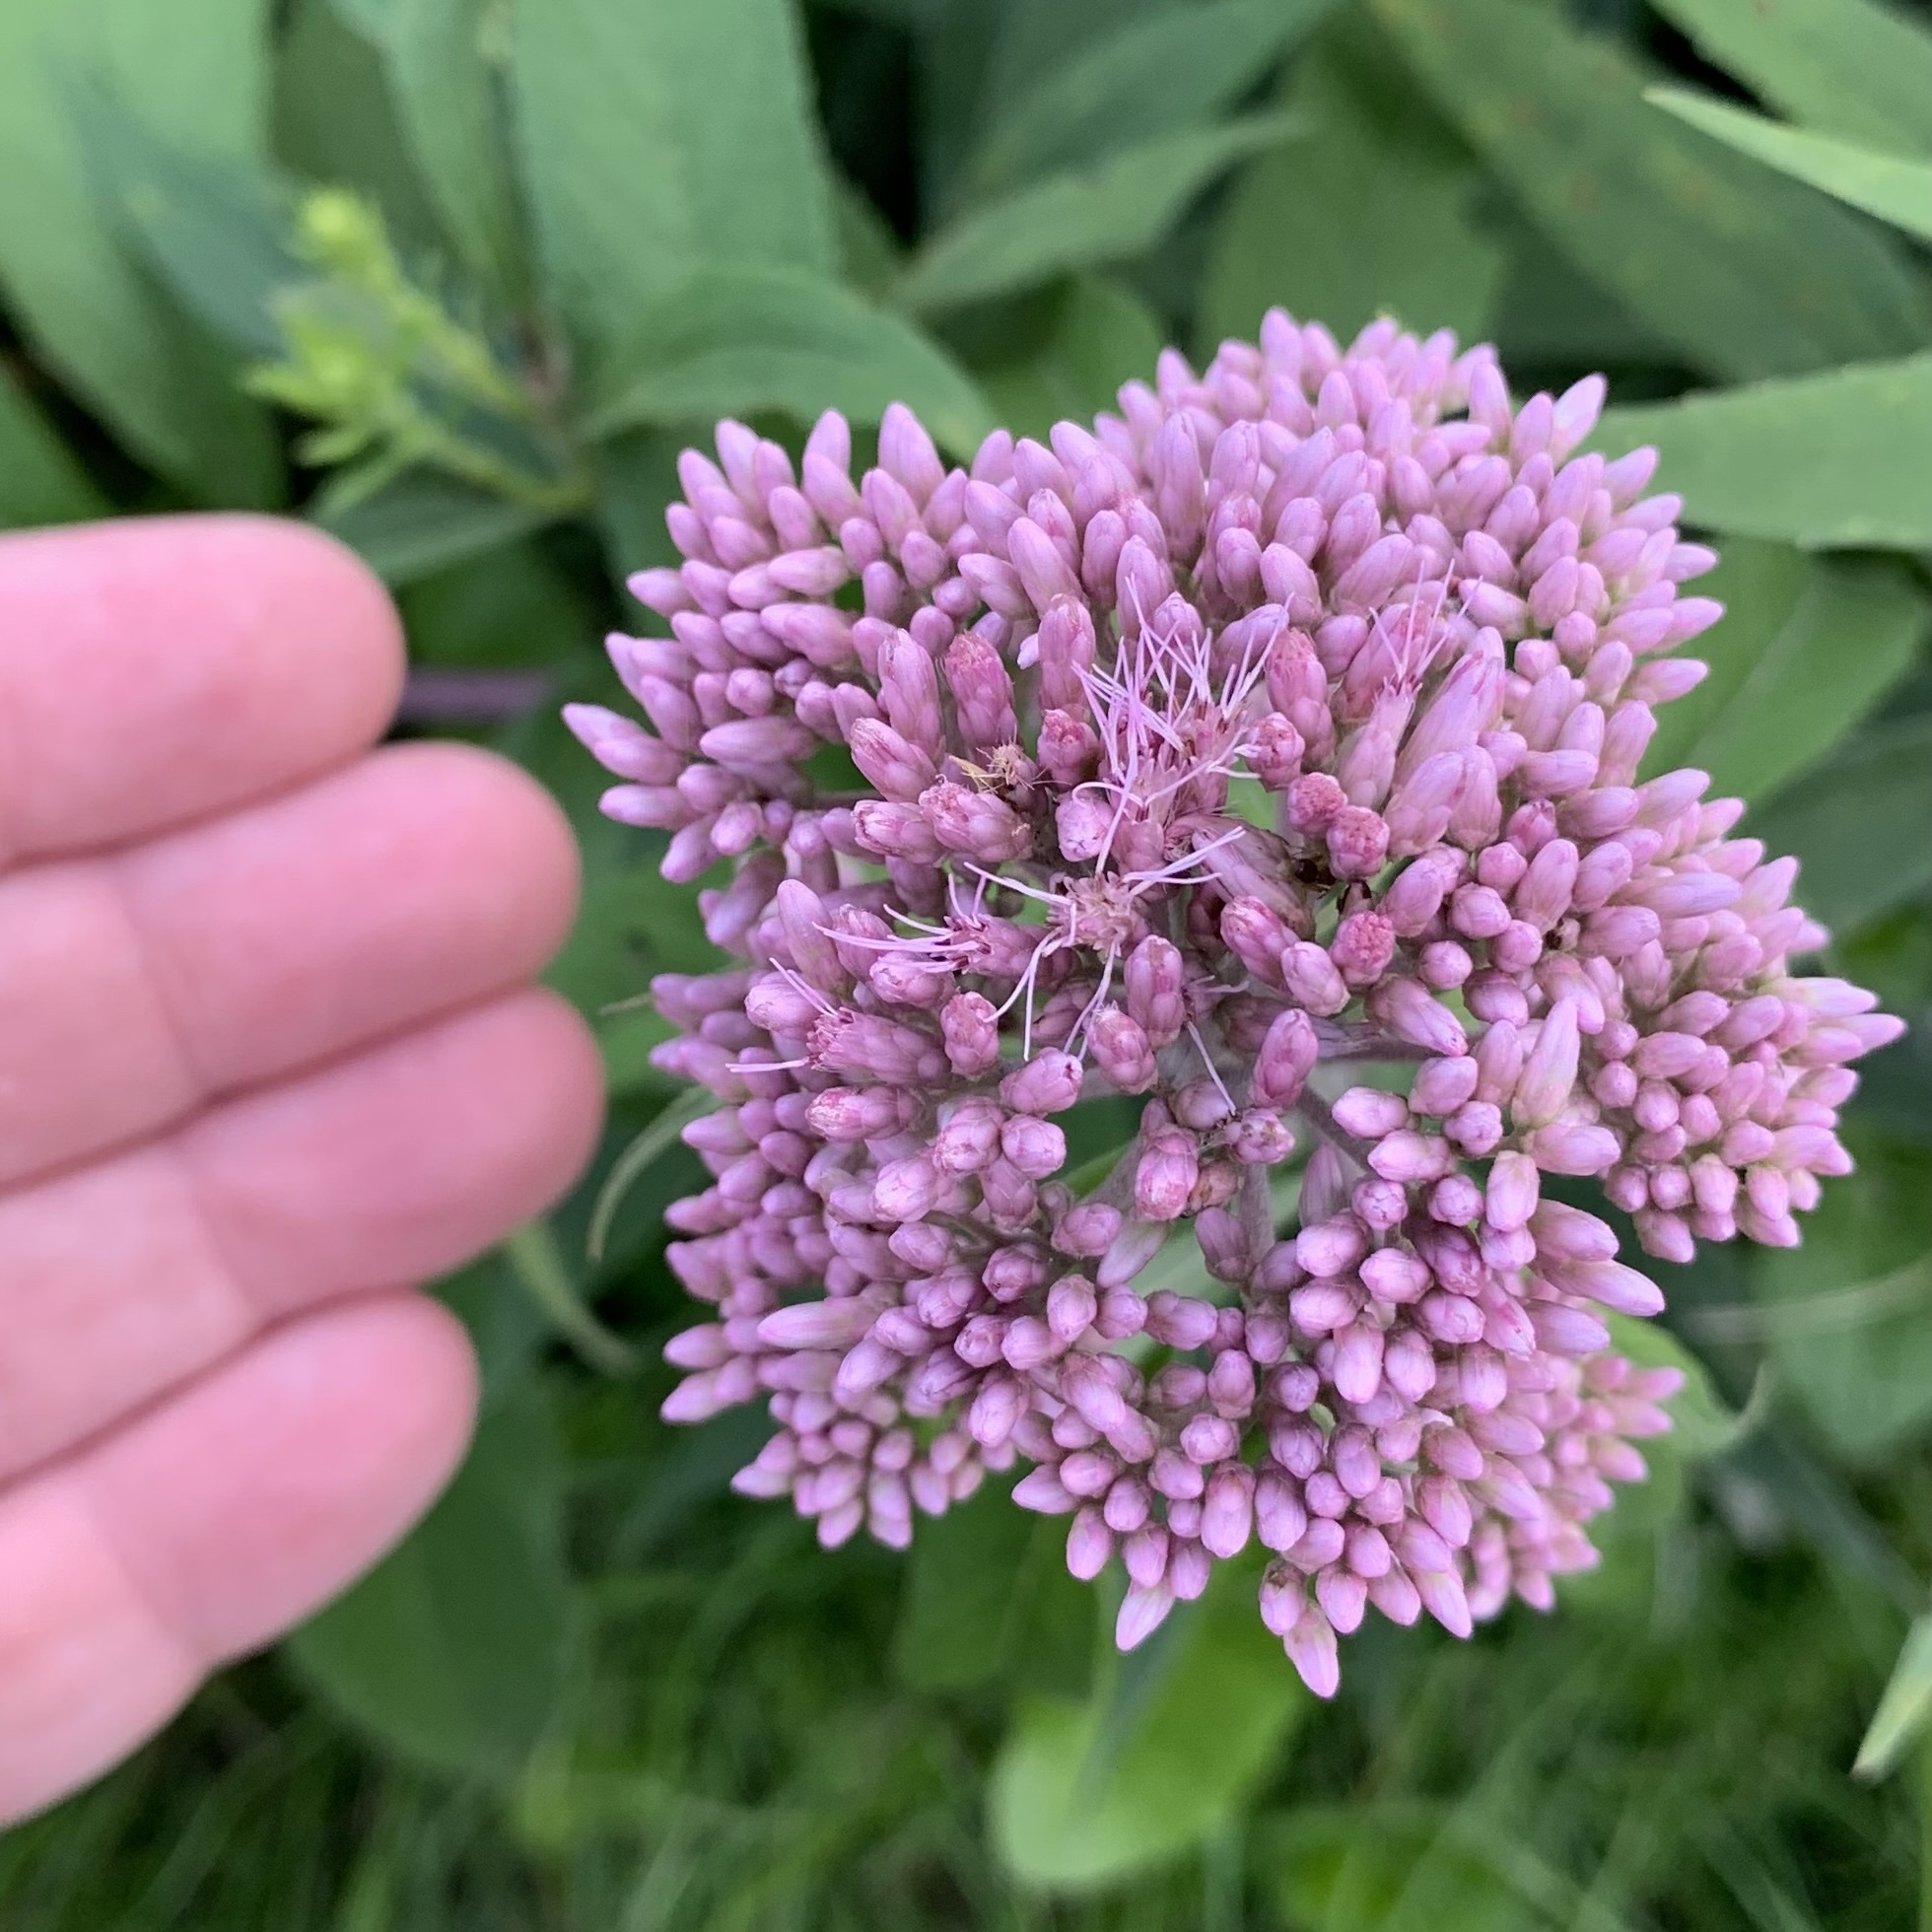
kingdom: Plantae
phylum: Tracheophyta
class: Magnoliopsida
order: Asterales
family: Asteraceae
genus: Eutrochium
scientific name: Eutrochium maculatum
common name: Spotted joe pye weed
